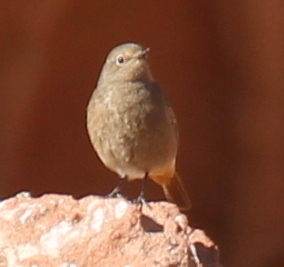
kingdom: Animalia
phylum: Chordata
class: Aves
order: Passeriformes
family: Muscicapidae
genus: Phoenicurus
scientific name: Phoenicurus ochruros
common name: Black redstart
